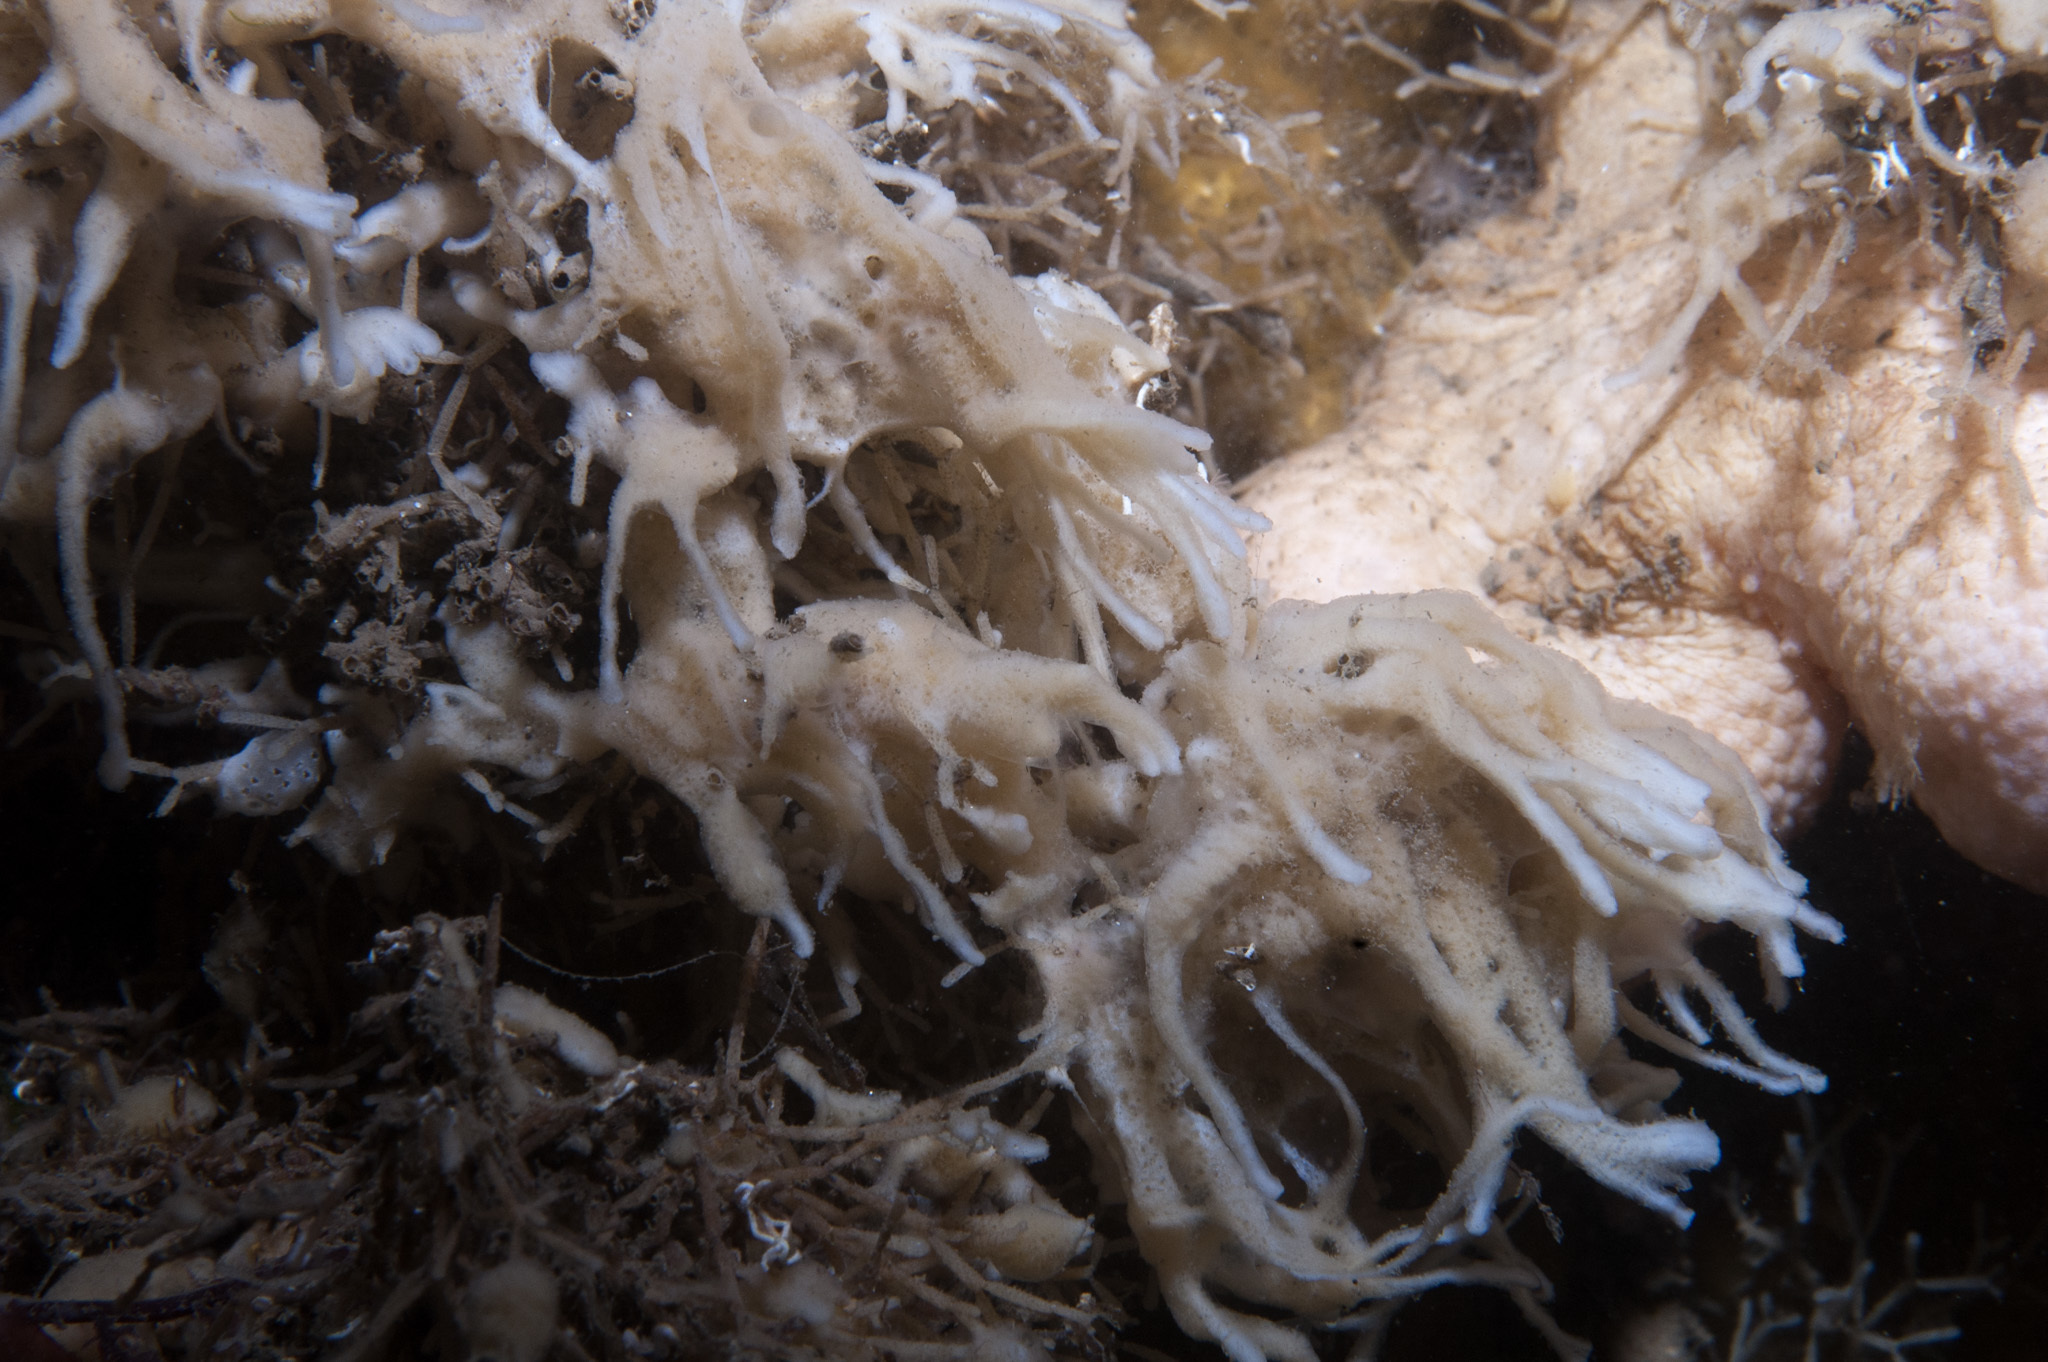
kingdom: Animalia
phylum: Porifera
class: Demospongiae
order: Suberitida
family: Halichondriidae
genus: Hymeniacidon
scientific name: Hymeniacidon kitchingi
